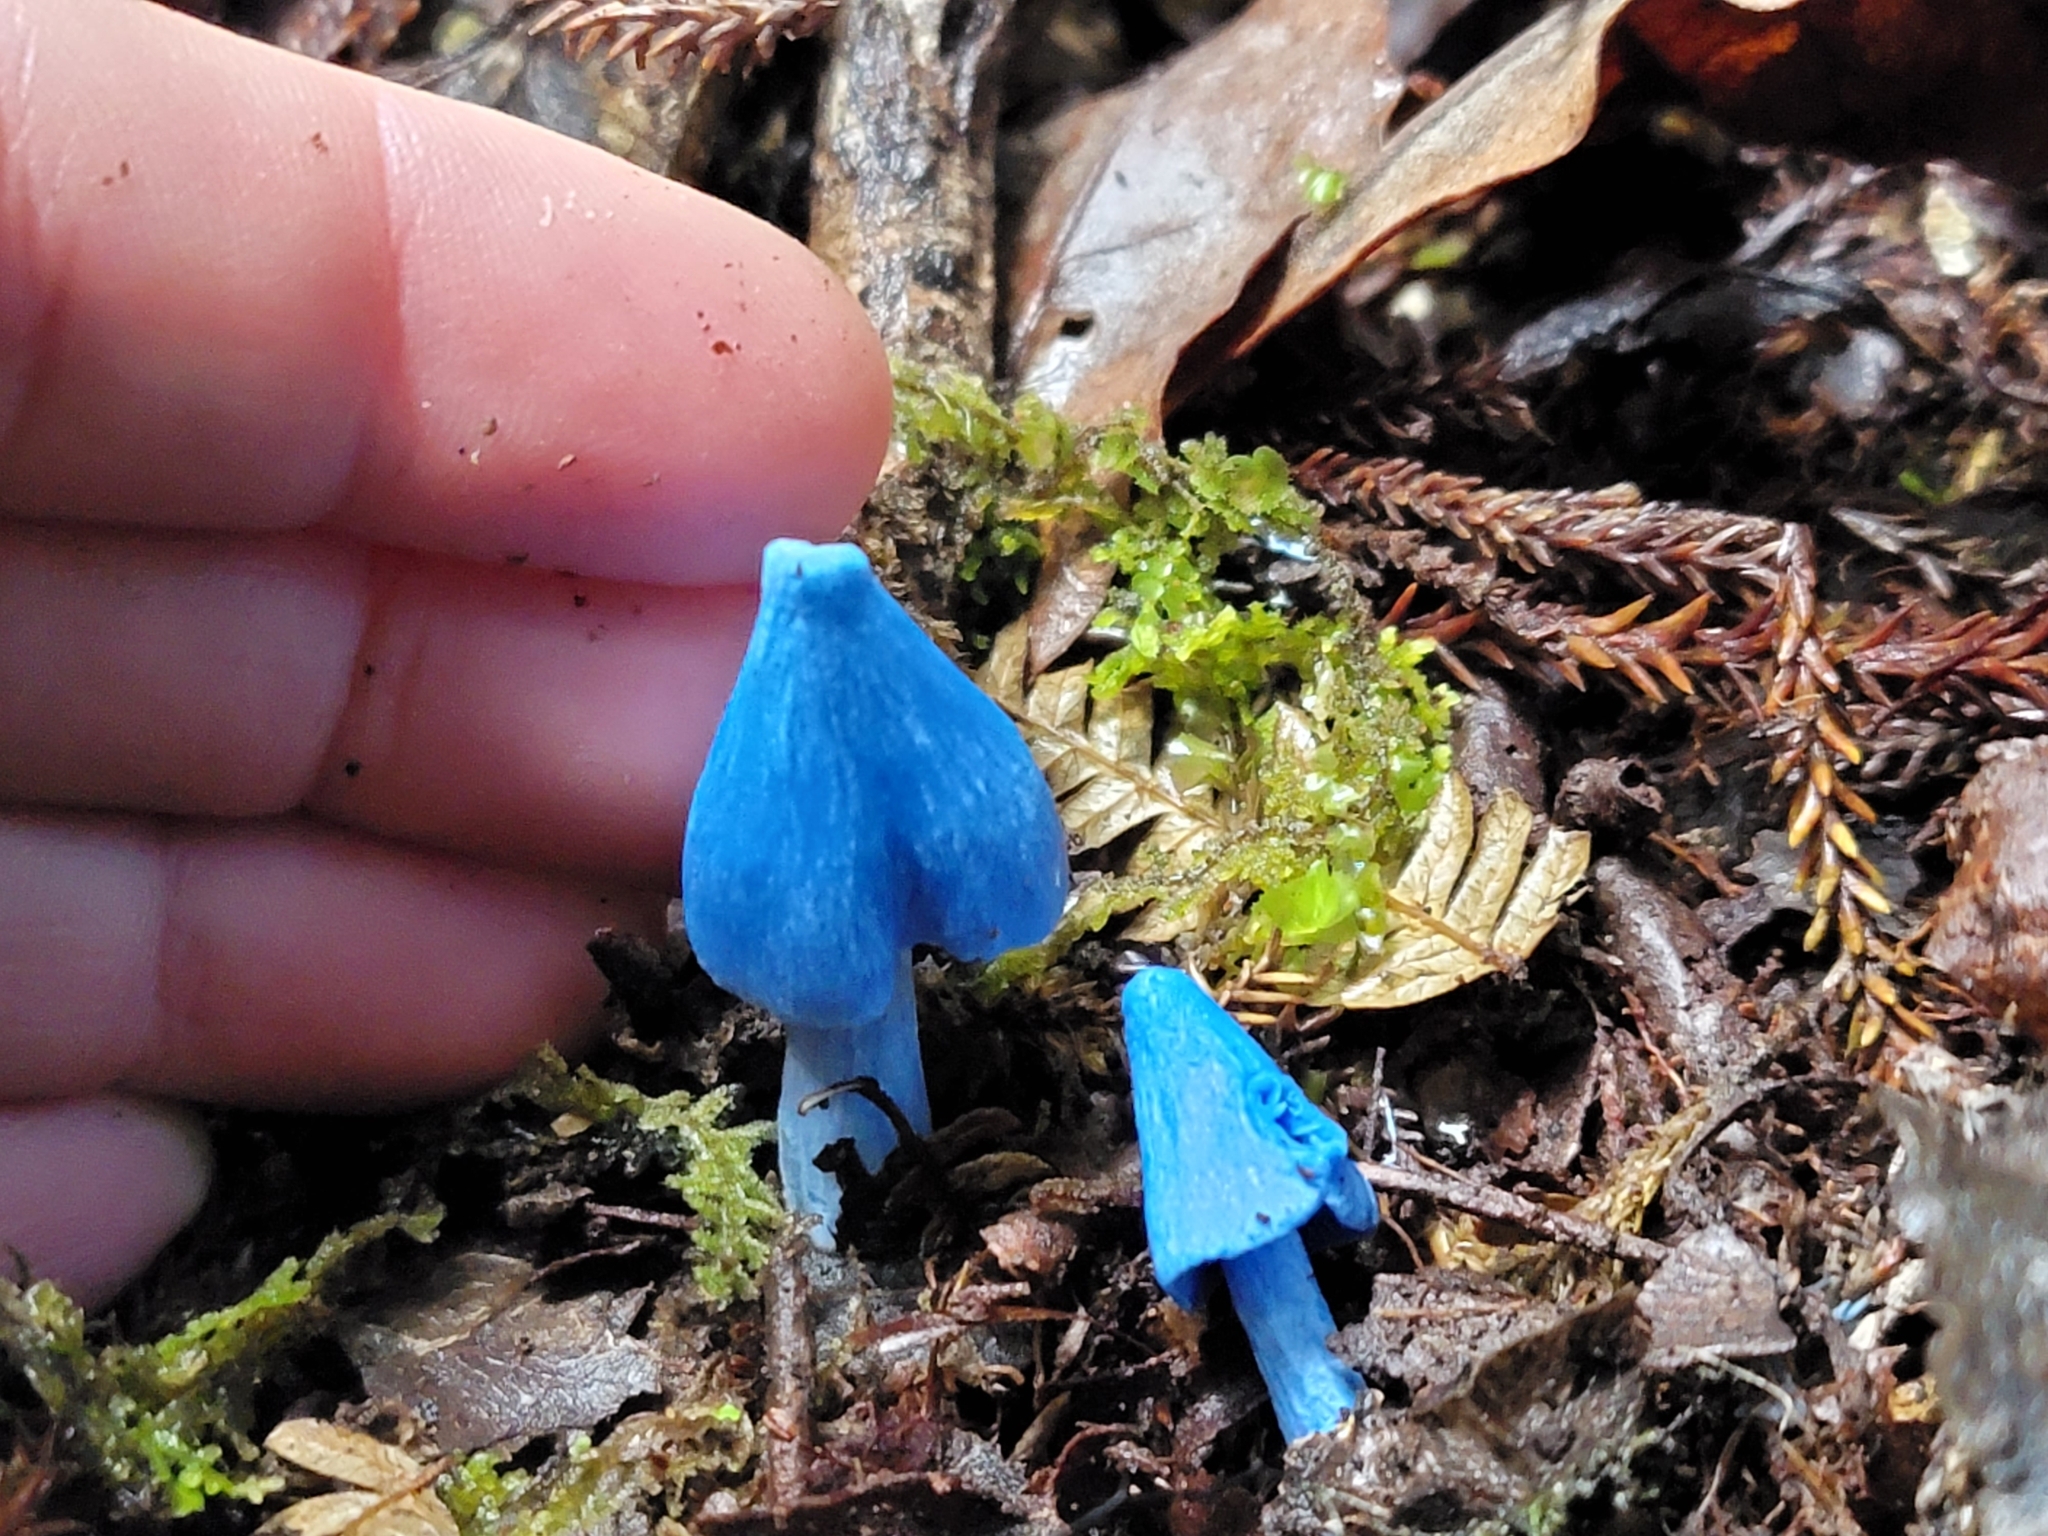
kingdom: Fungi
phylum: Basidiomycota
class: Agaricomycetes
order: Agaricales
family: Entolomataceae
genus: Entoloma
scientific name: Entoloma hochstetteri
